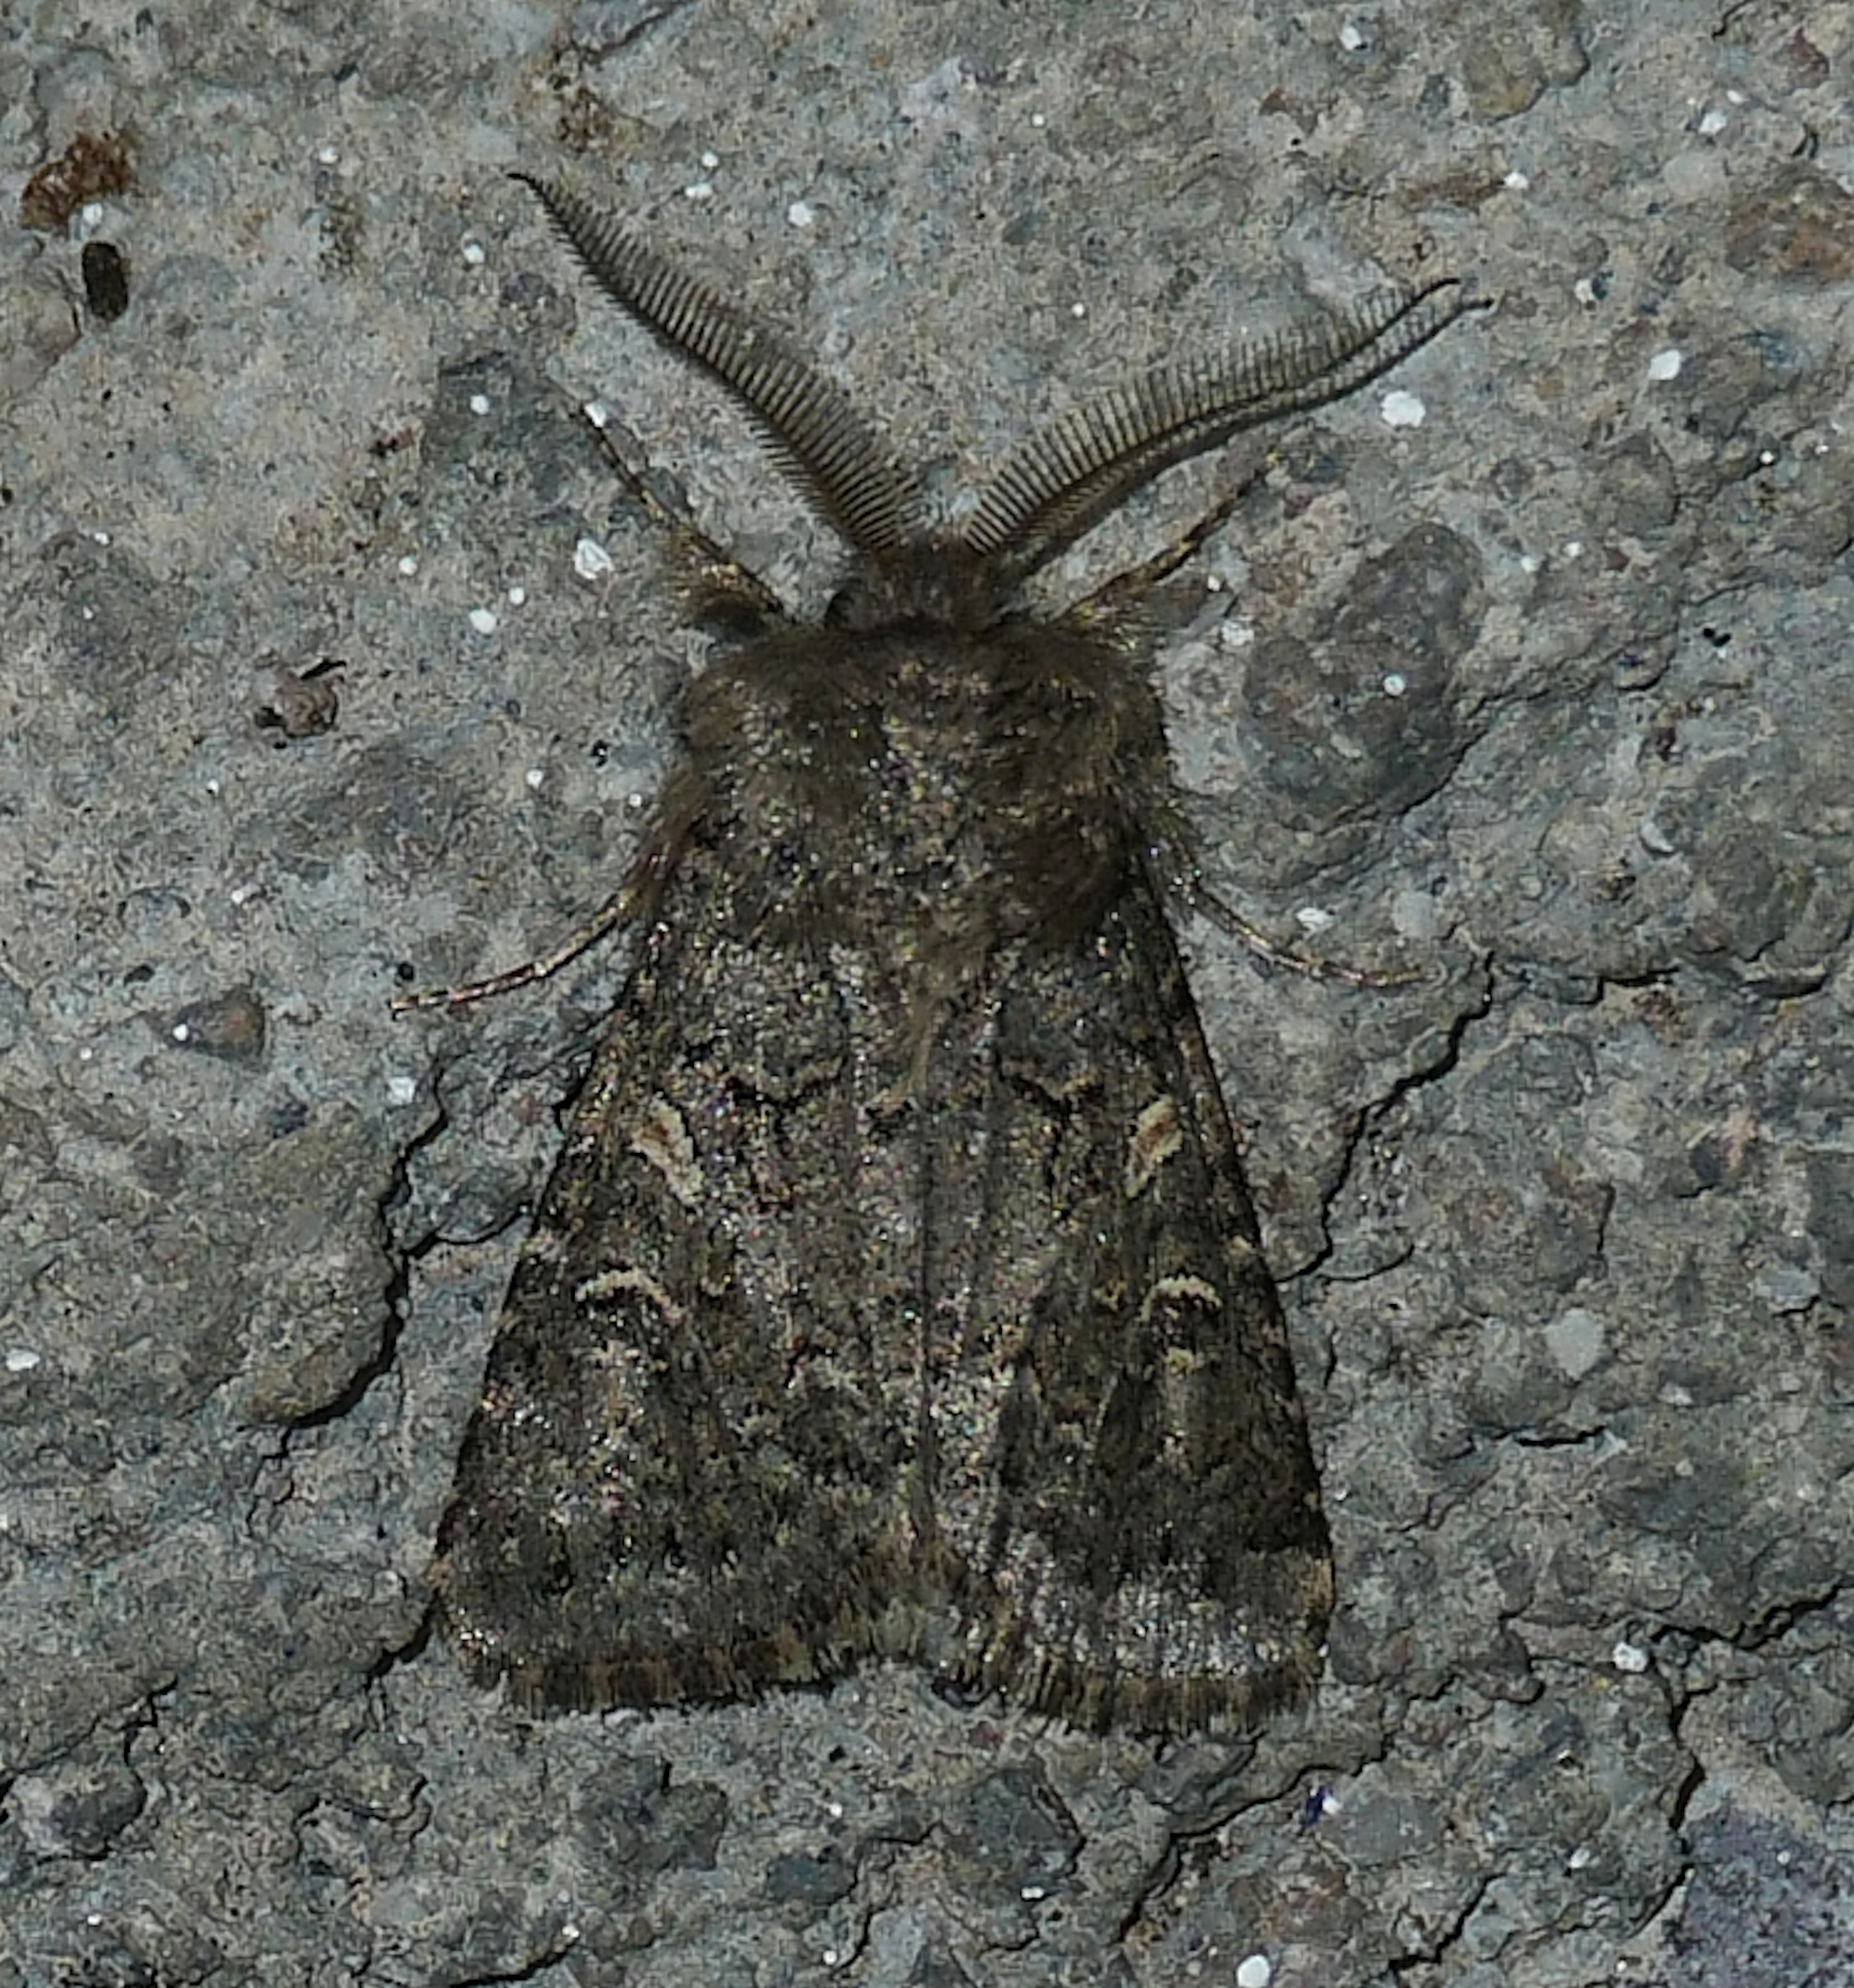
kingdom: Animalia
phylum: Arthropoda
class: Insecta
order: Lepidoptera
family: Noctuidae
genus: Spodoptera
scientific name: Spodoptera hipparis
